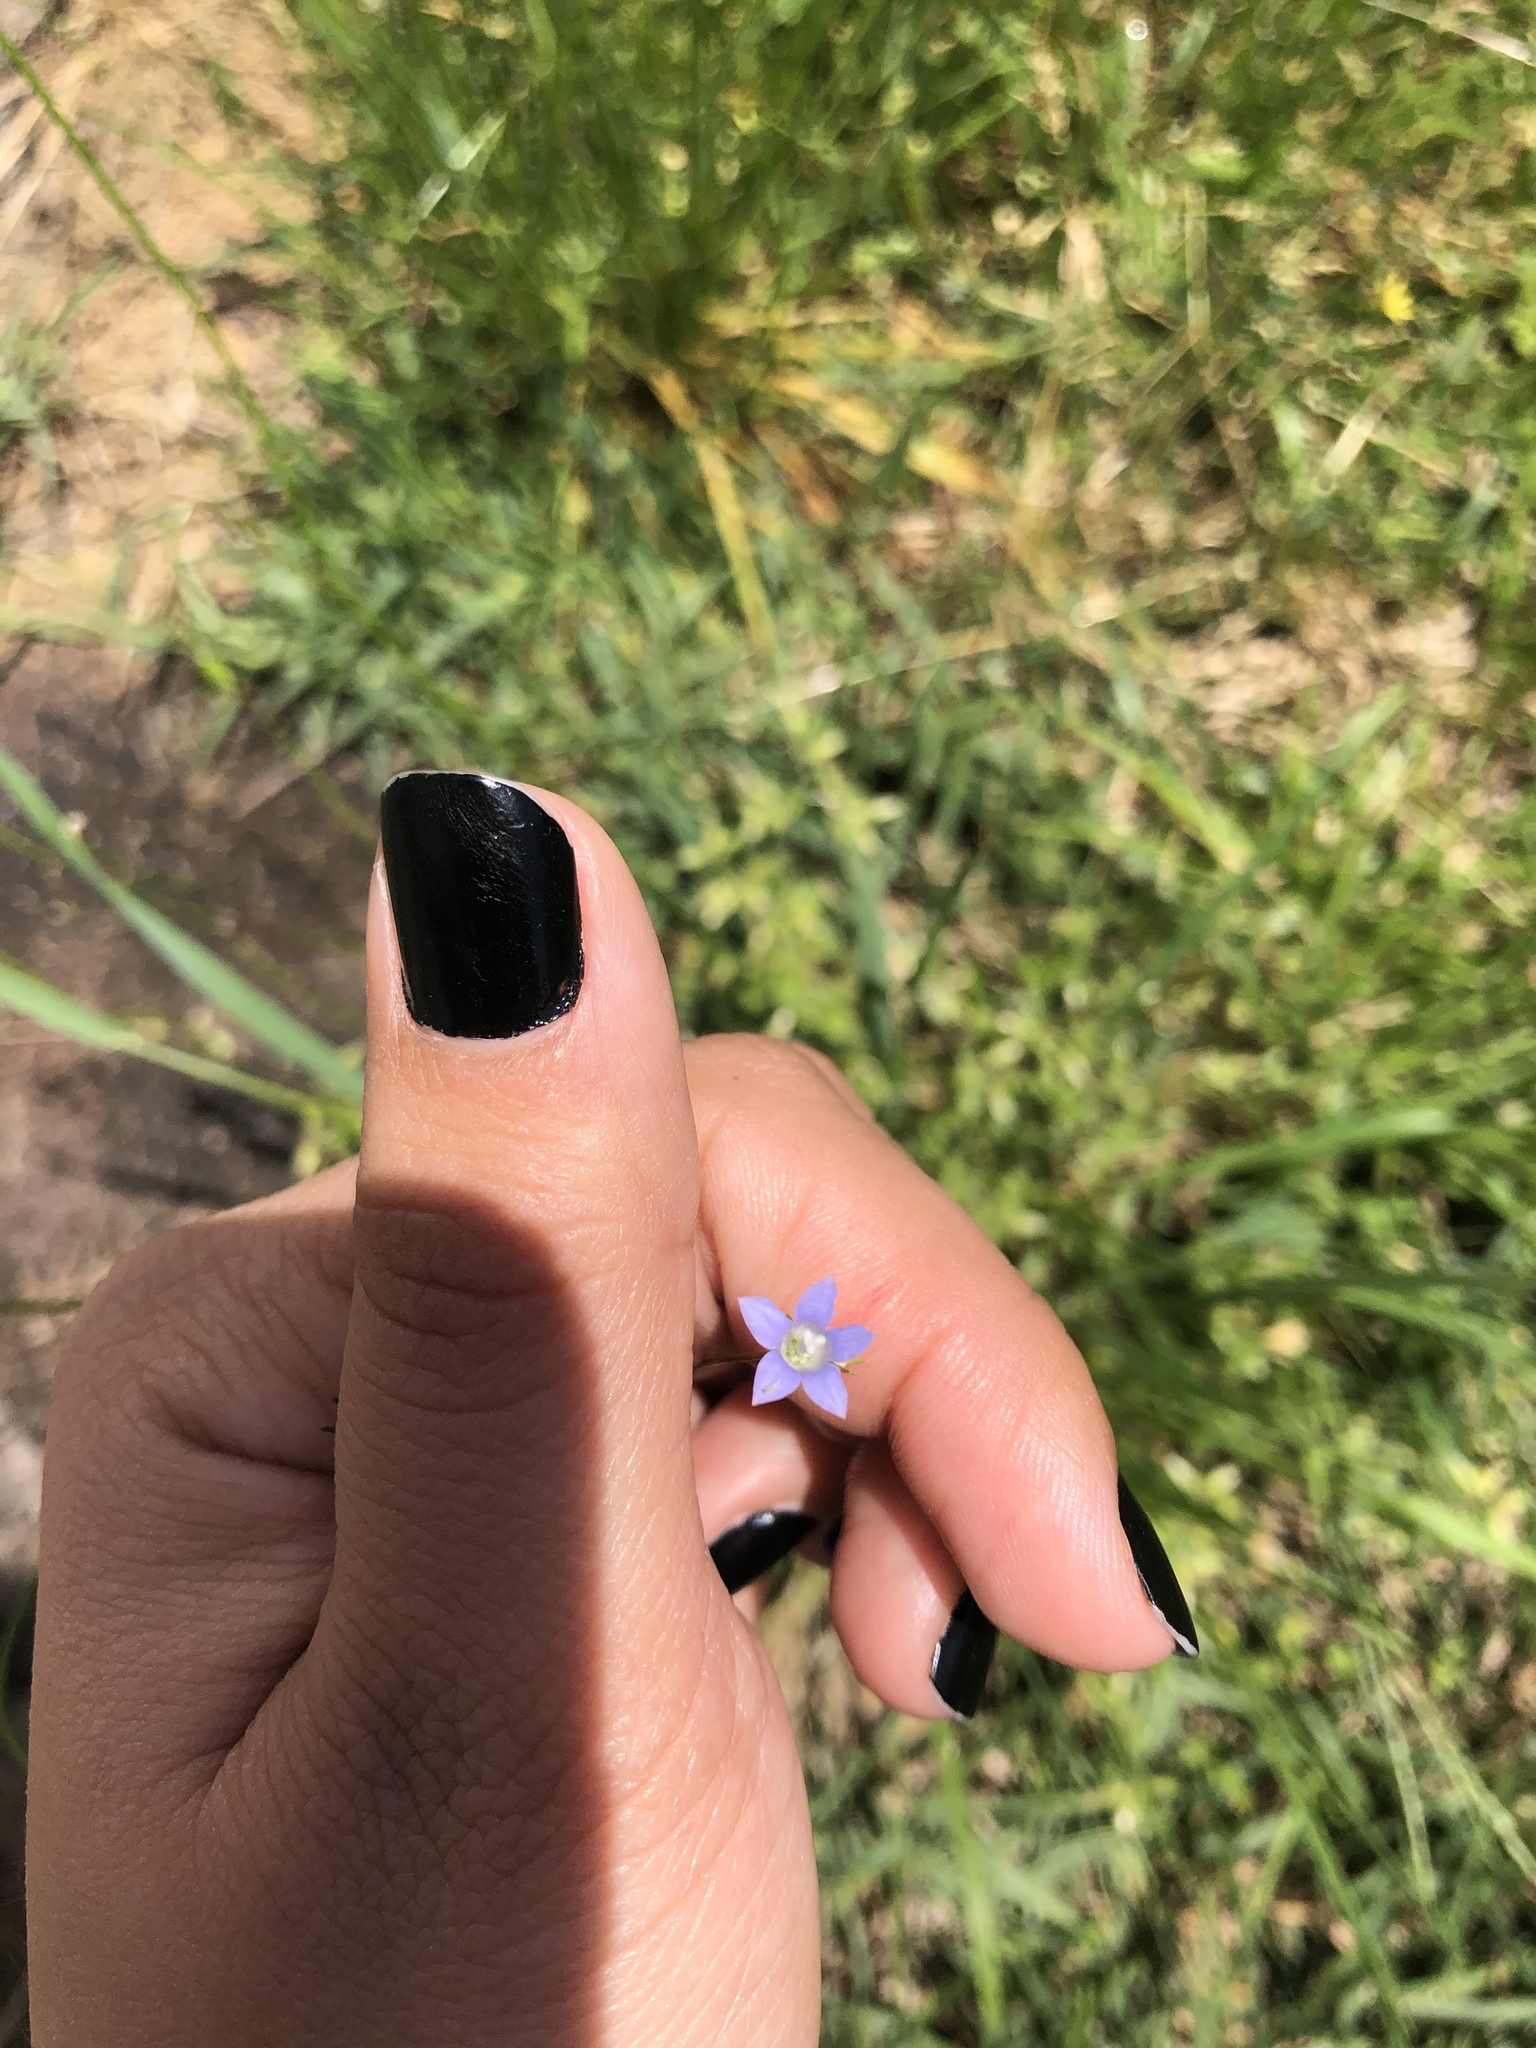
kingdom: Plantae
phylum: Tracheophyta
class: Magnoliopsida
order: Asterales
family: Campanulaceae
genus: Wahlenbergia
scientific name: Wahlenbergia marginata
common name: Southern rockbell
